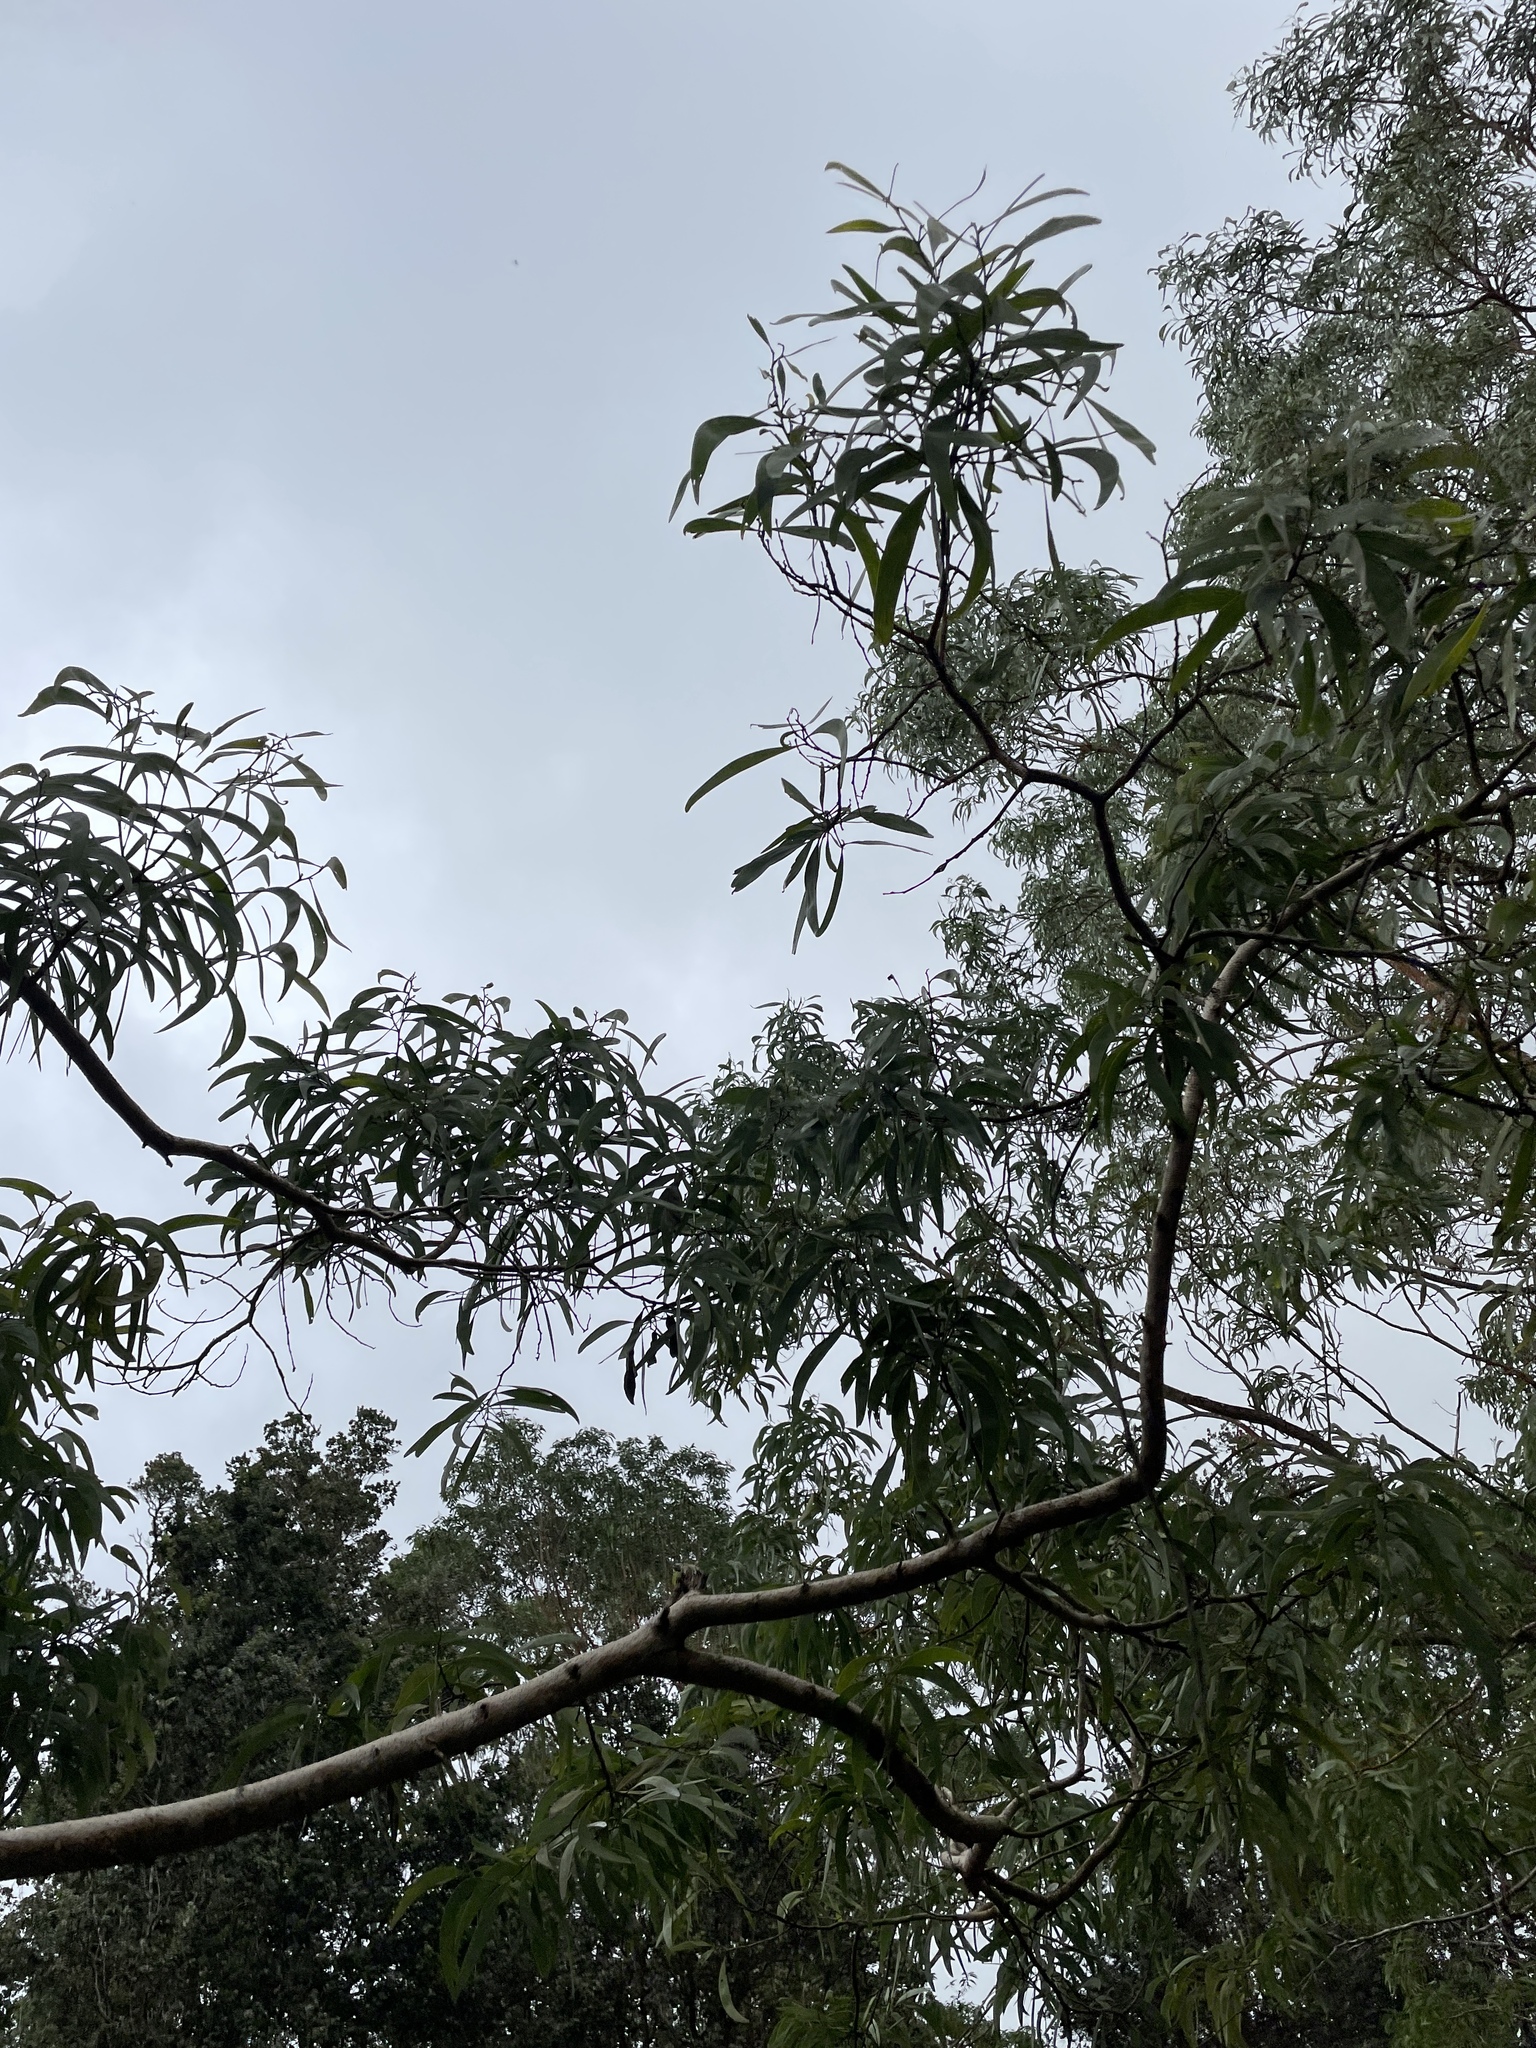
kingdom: Plantae
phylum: Tracheophyta
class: Magnoliopsida
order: Fabales
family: Fabaceae
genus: Acacia
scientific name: Acacia koa
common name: Gray koa
